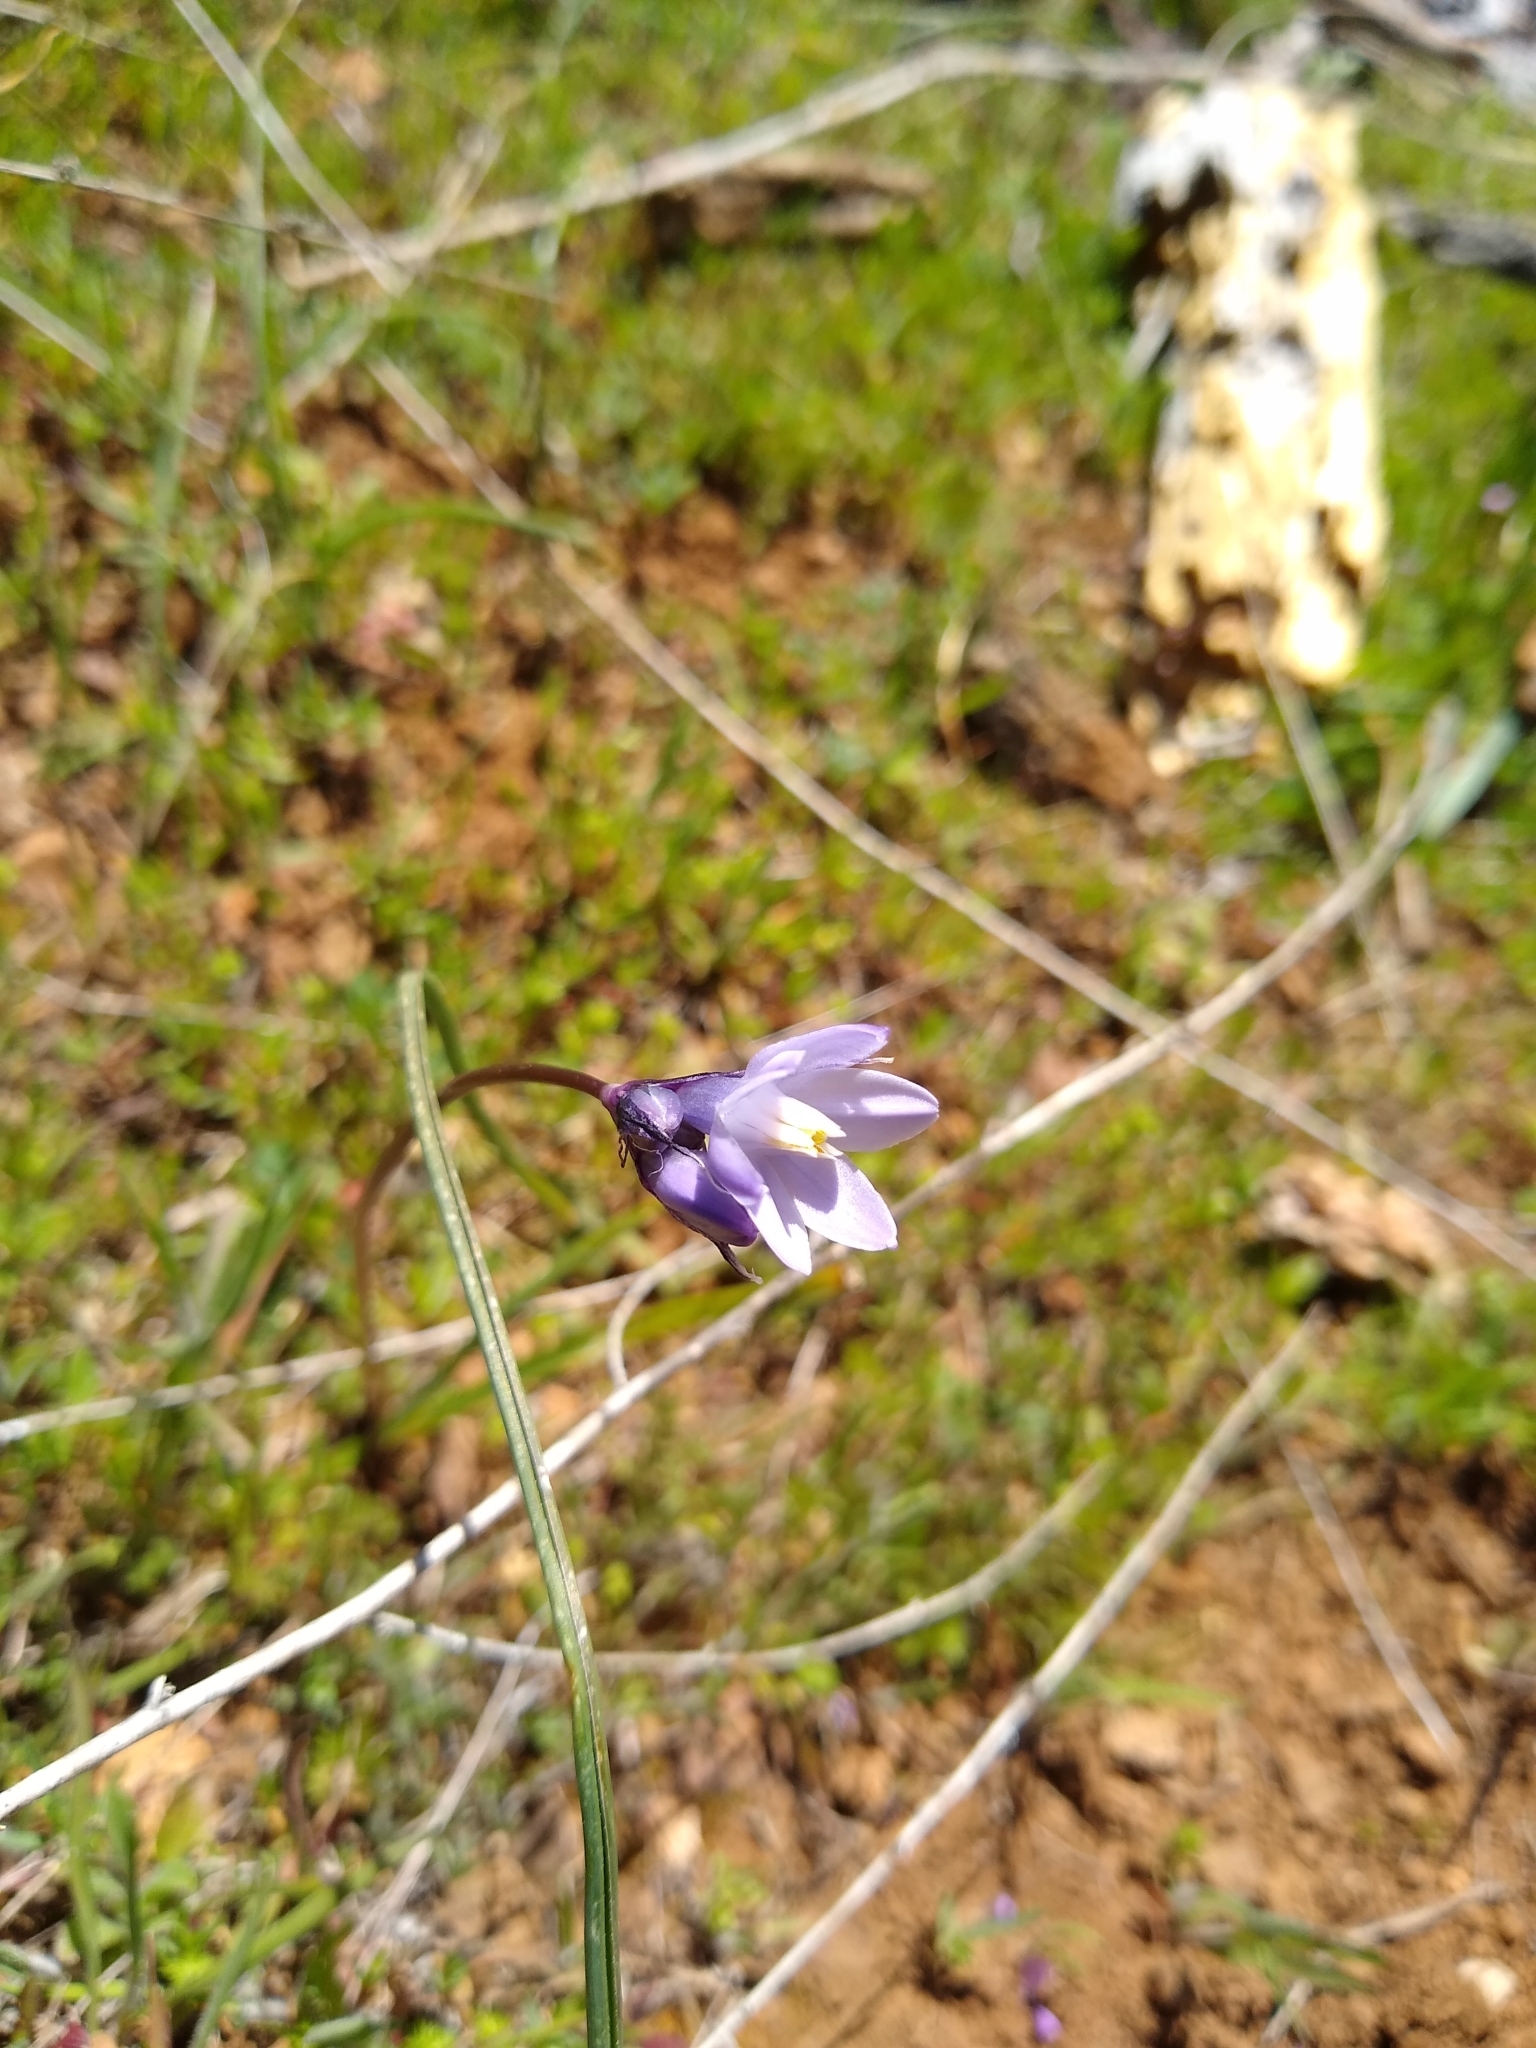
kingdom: Plantae
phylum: Tracheophyta
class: Liliopsida
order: Asparagales
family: Asparagaceae
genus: Dipterostemon
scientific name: Dipterostemon capitatus
